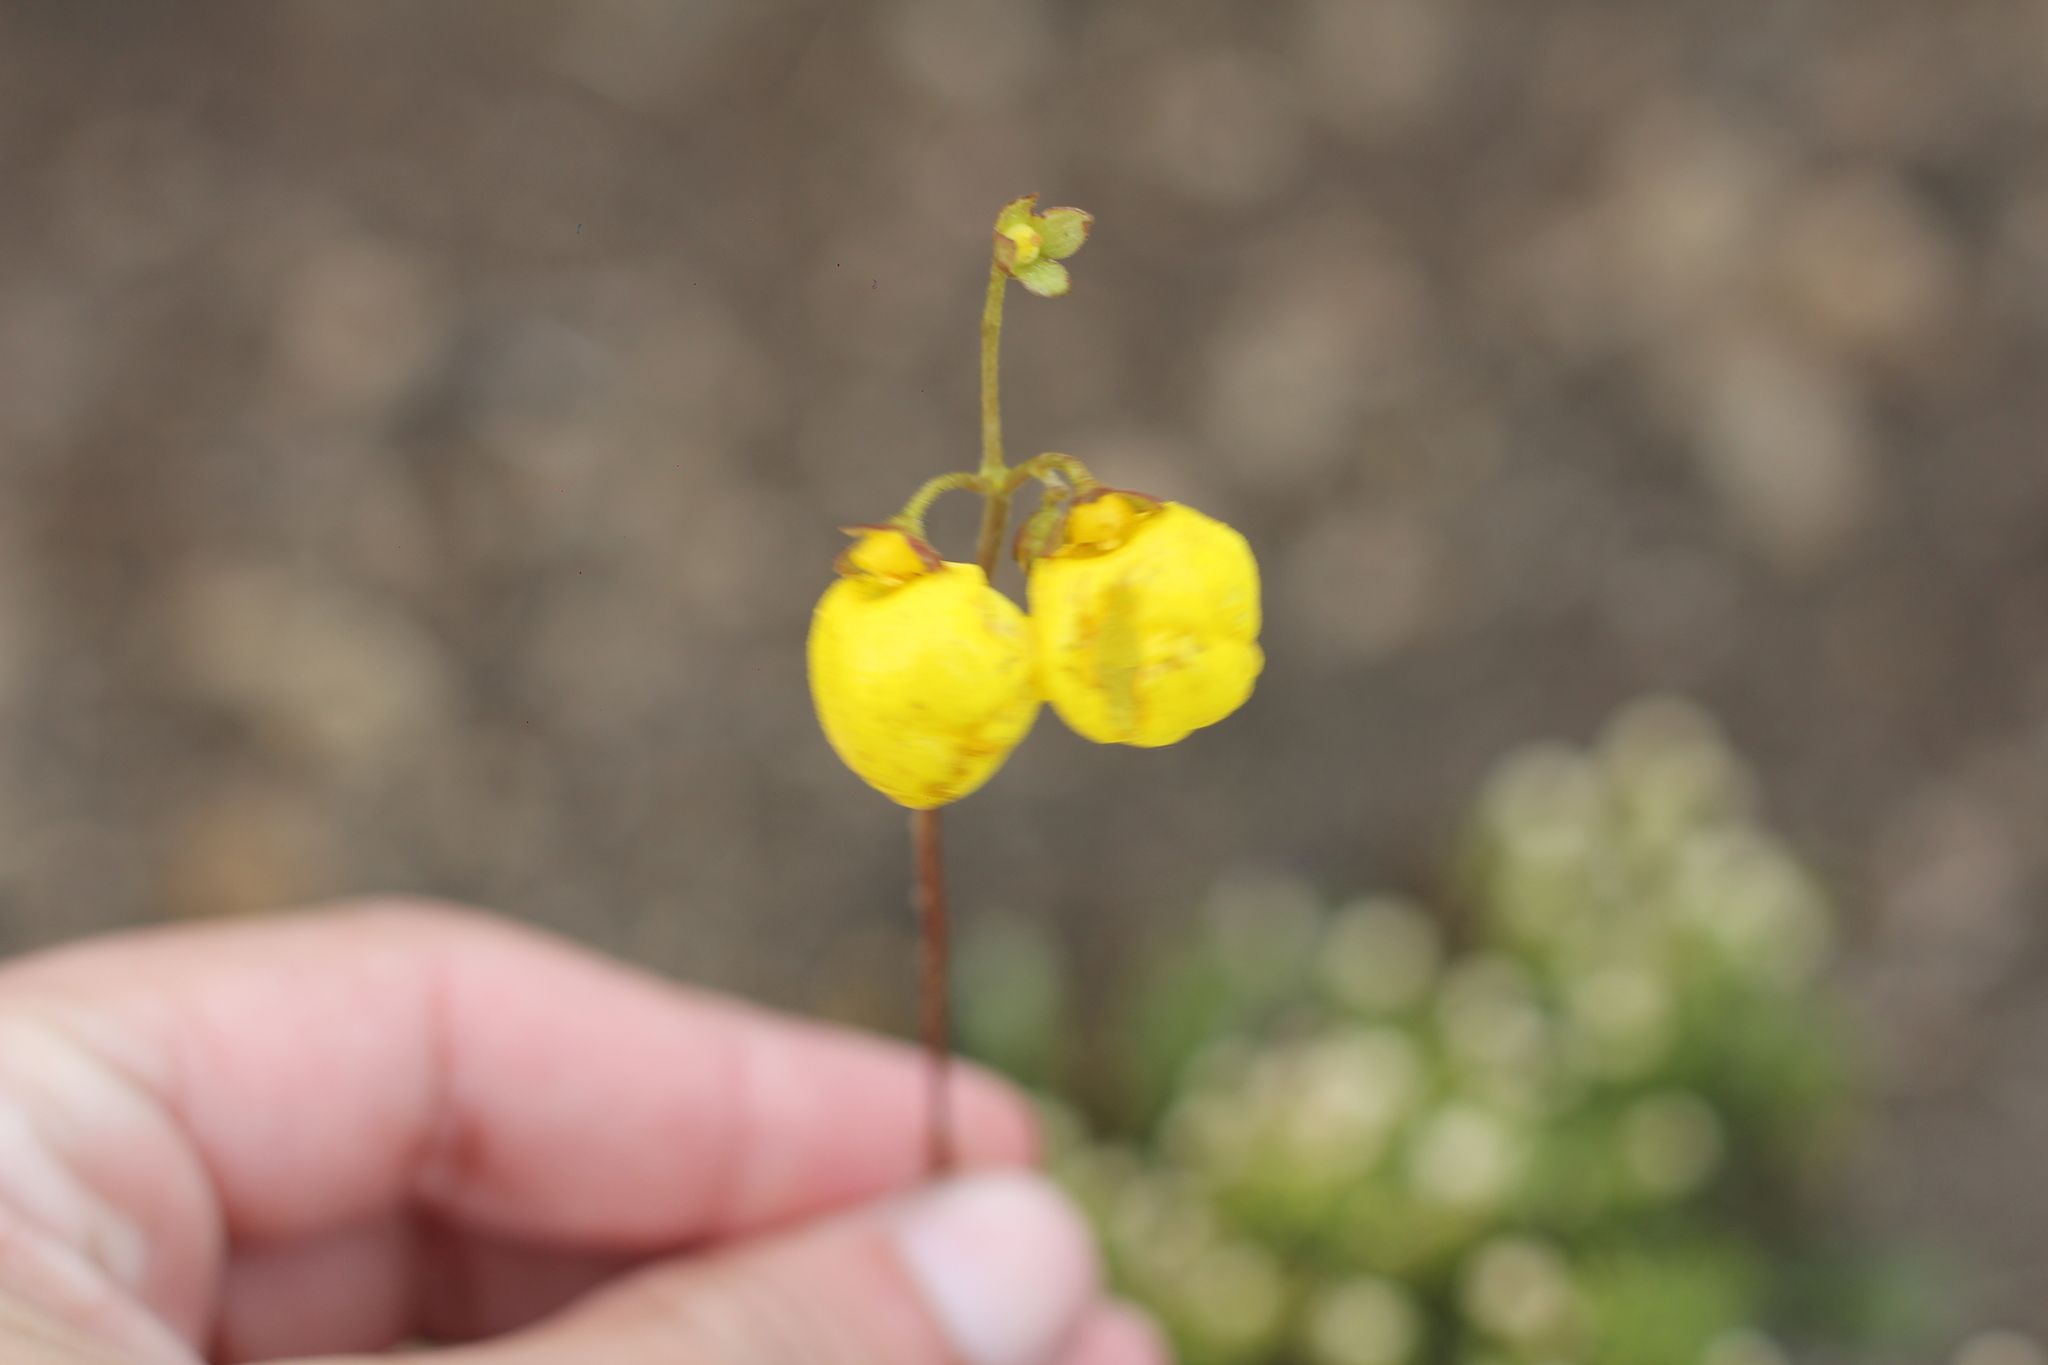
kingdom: Plantae
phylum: Tracheophyta
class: Magnoliopsida
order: Lamiales
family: Calceolariaceae
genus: Calceolaria
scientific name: Calceolaria filicaulis
